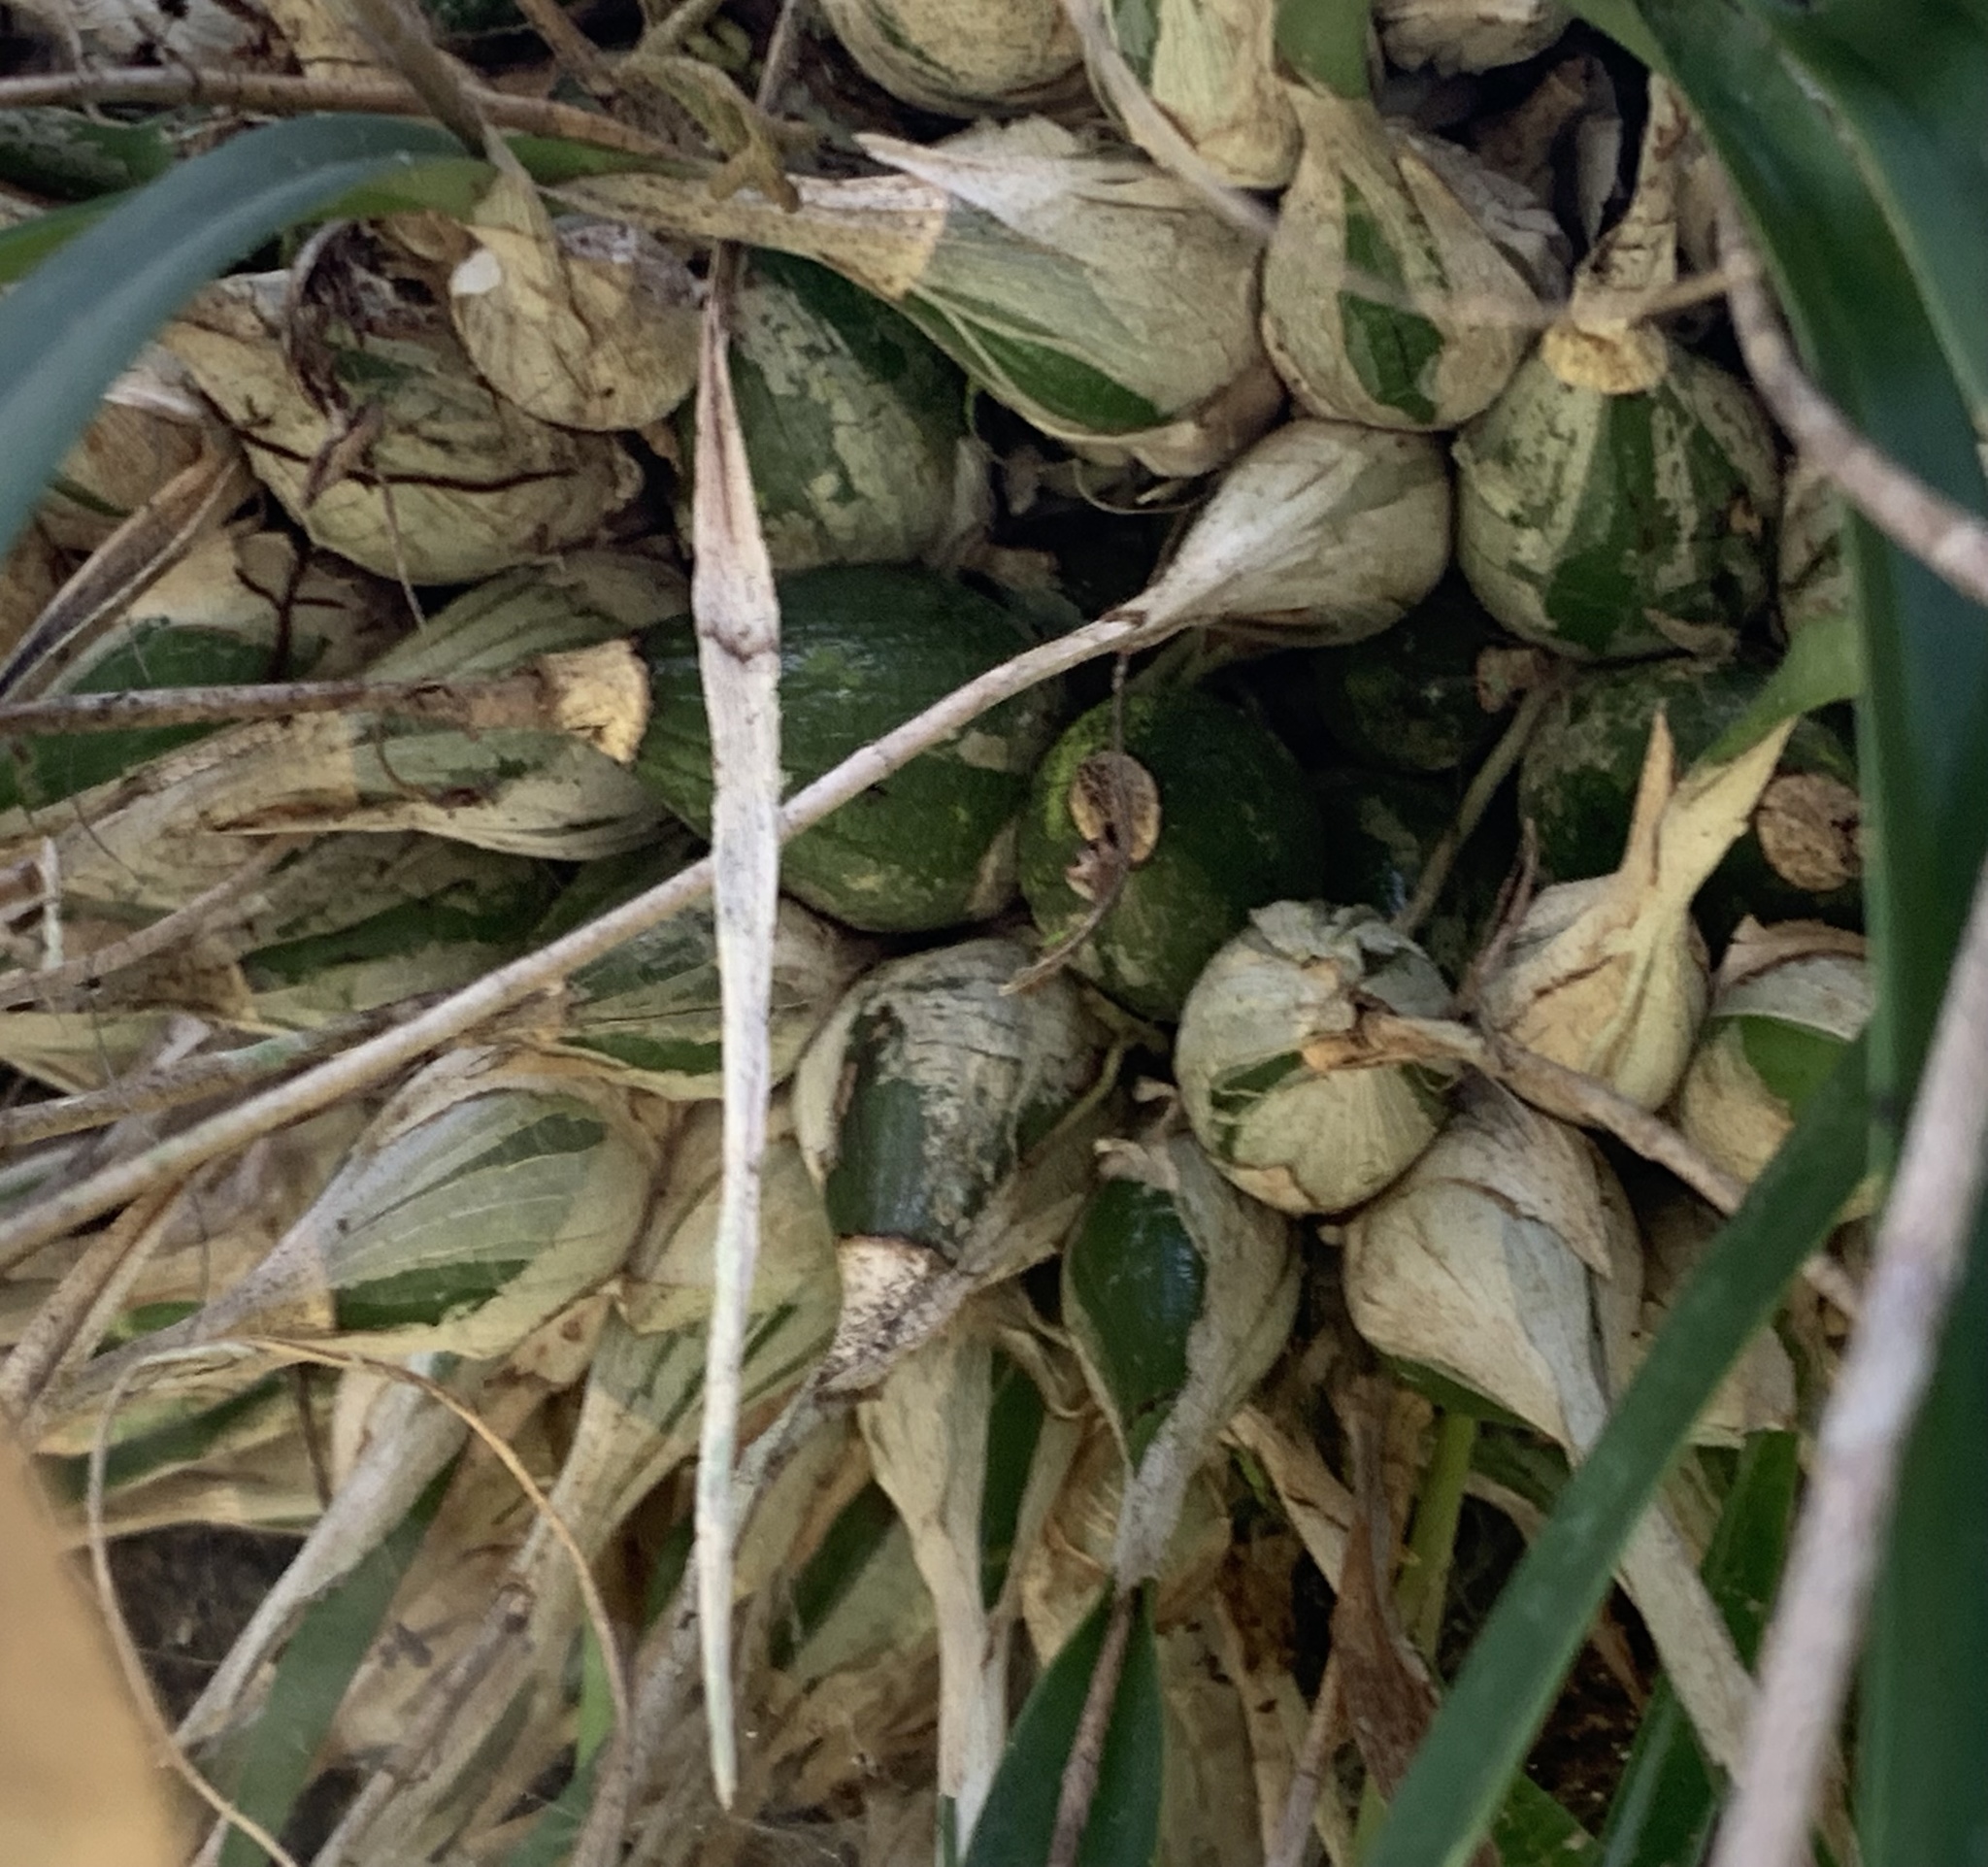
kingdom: Plantae
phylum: Tracheophyta
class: Liliopsida
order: Asparagales
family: Orchidaceae
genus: Encyclia
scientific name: Encyclia tampensis
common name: Florida butterfly orchid
